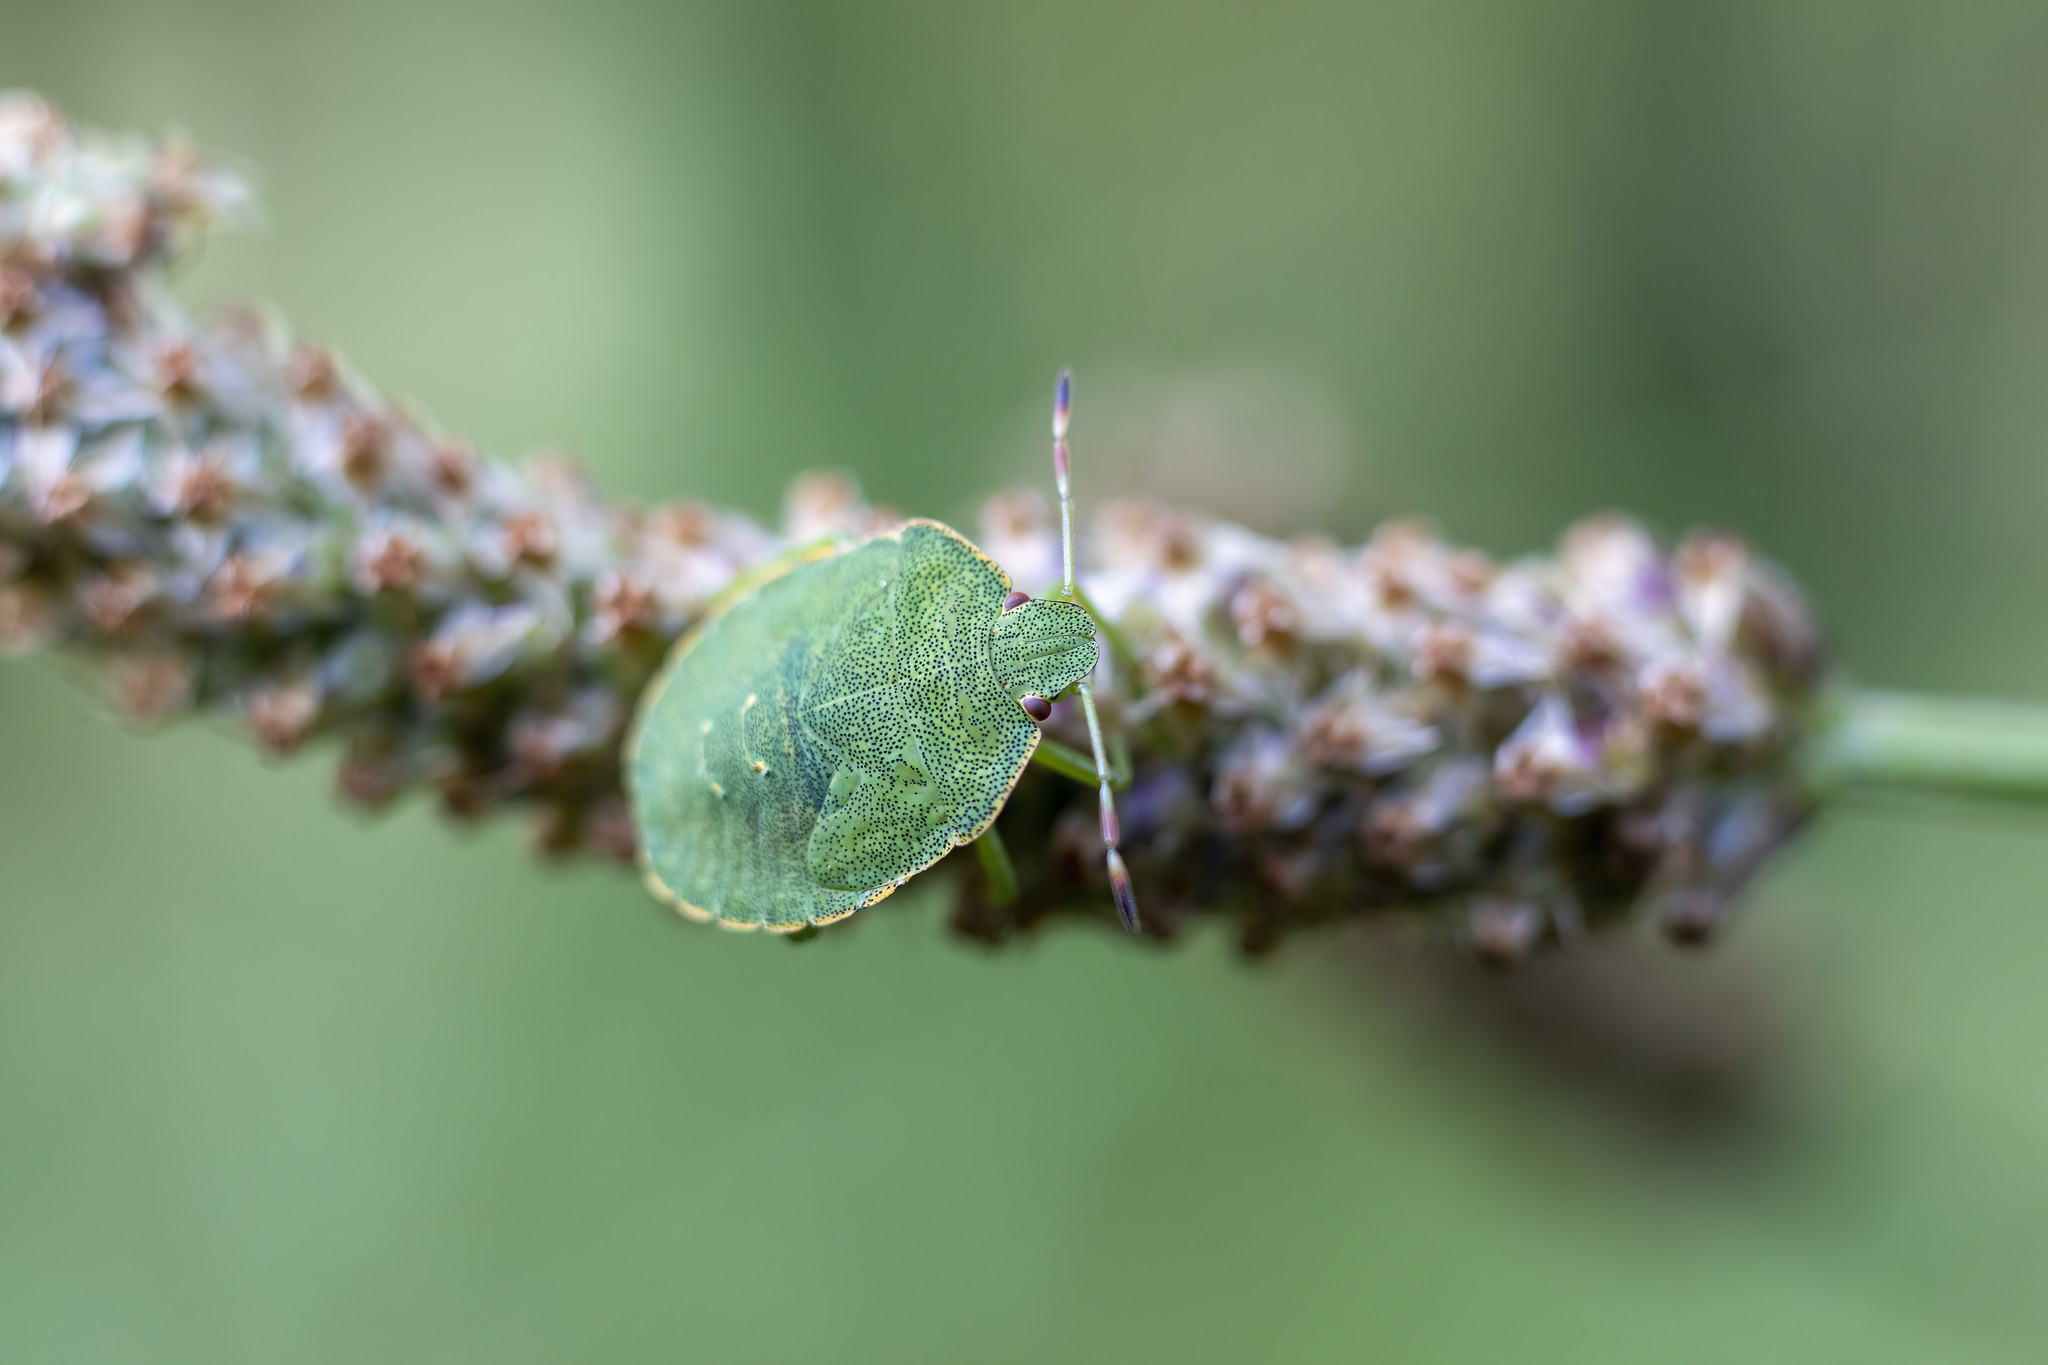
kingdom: Animalia
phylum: Arthropoda
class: Insecta
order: Hemiptera
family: Pentatomidae
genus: Palomena
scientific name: Palomena prasina
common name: Green shieldbug
